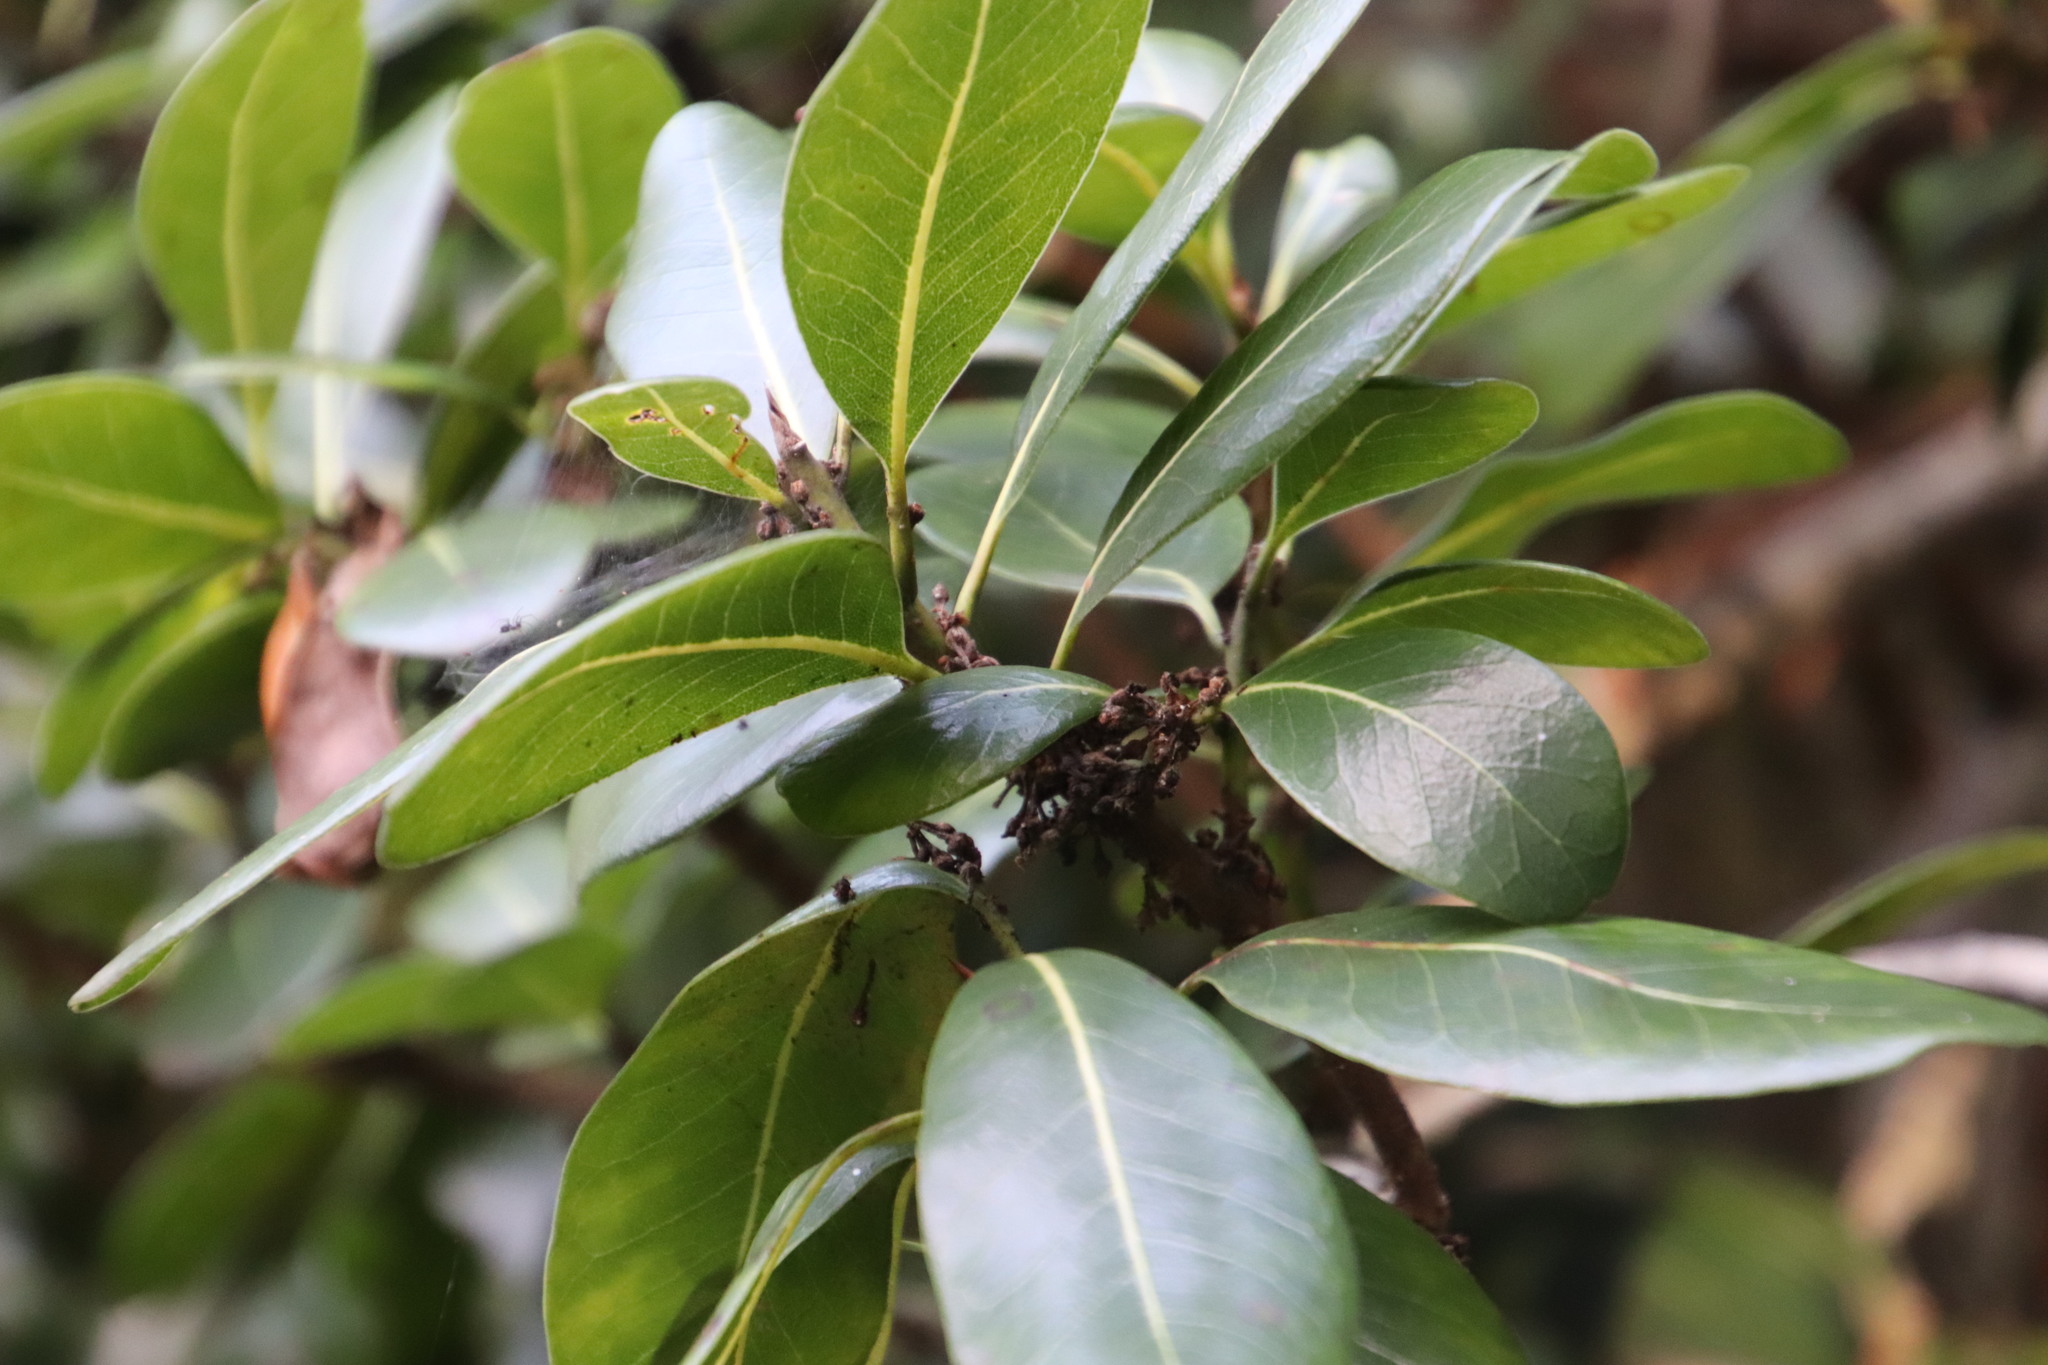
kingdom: Plantae
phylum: Tracheophyta
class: Magnoliopsida
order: Ericales
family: Sapotaceae
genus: Sideroxylon
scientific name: Sideroxylon inerme
